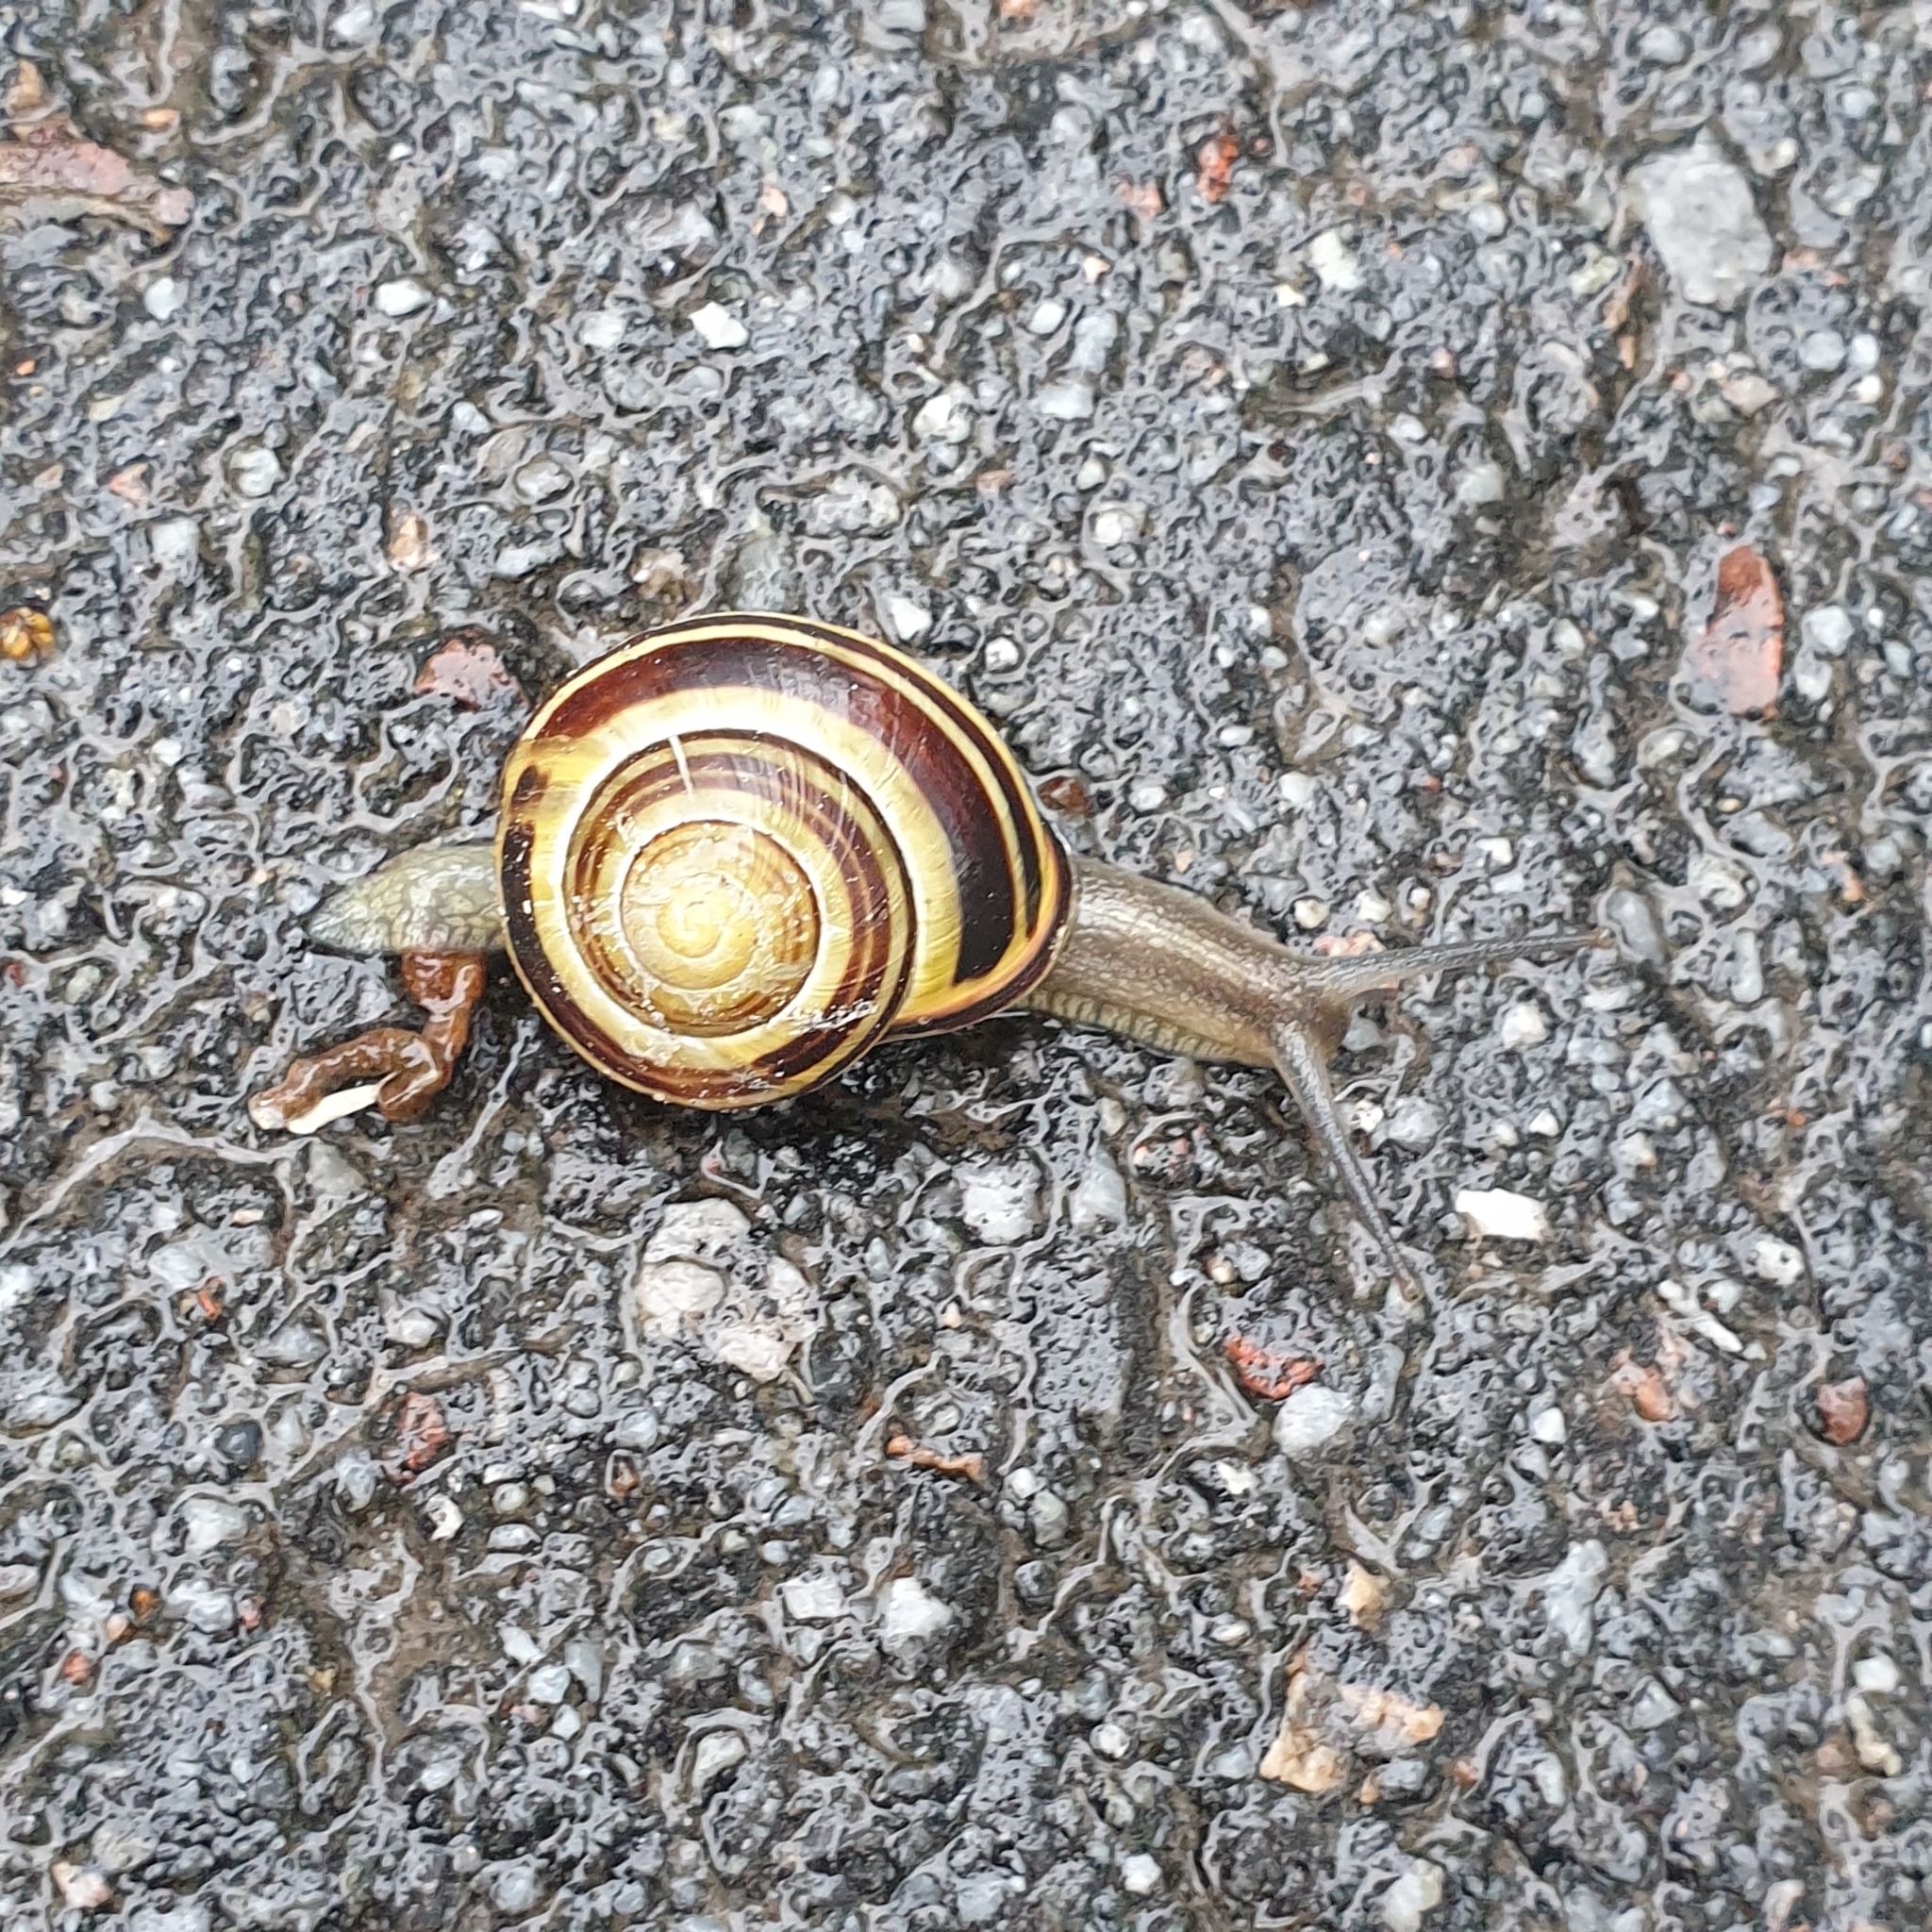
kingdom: Animalia
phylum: Mollusca
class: Gastropoda
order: Stylommatophora
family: Helicidae
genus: Cepaea
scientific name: Cepaea nemoralis
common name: Grovesnail
